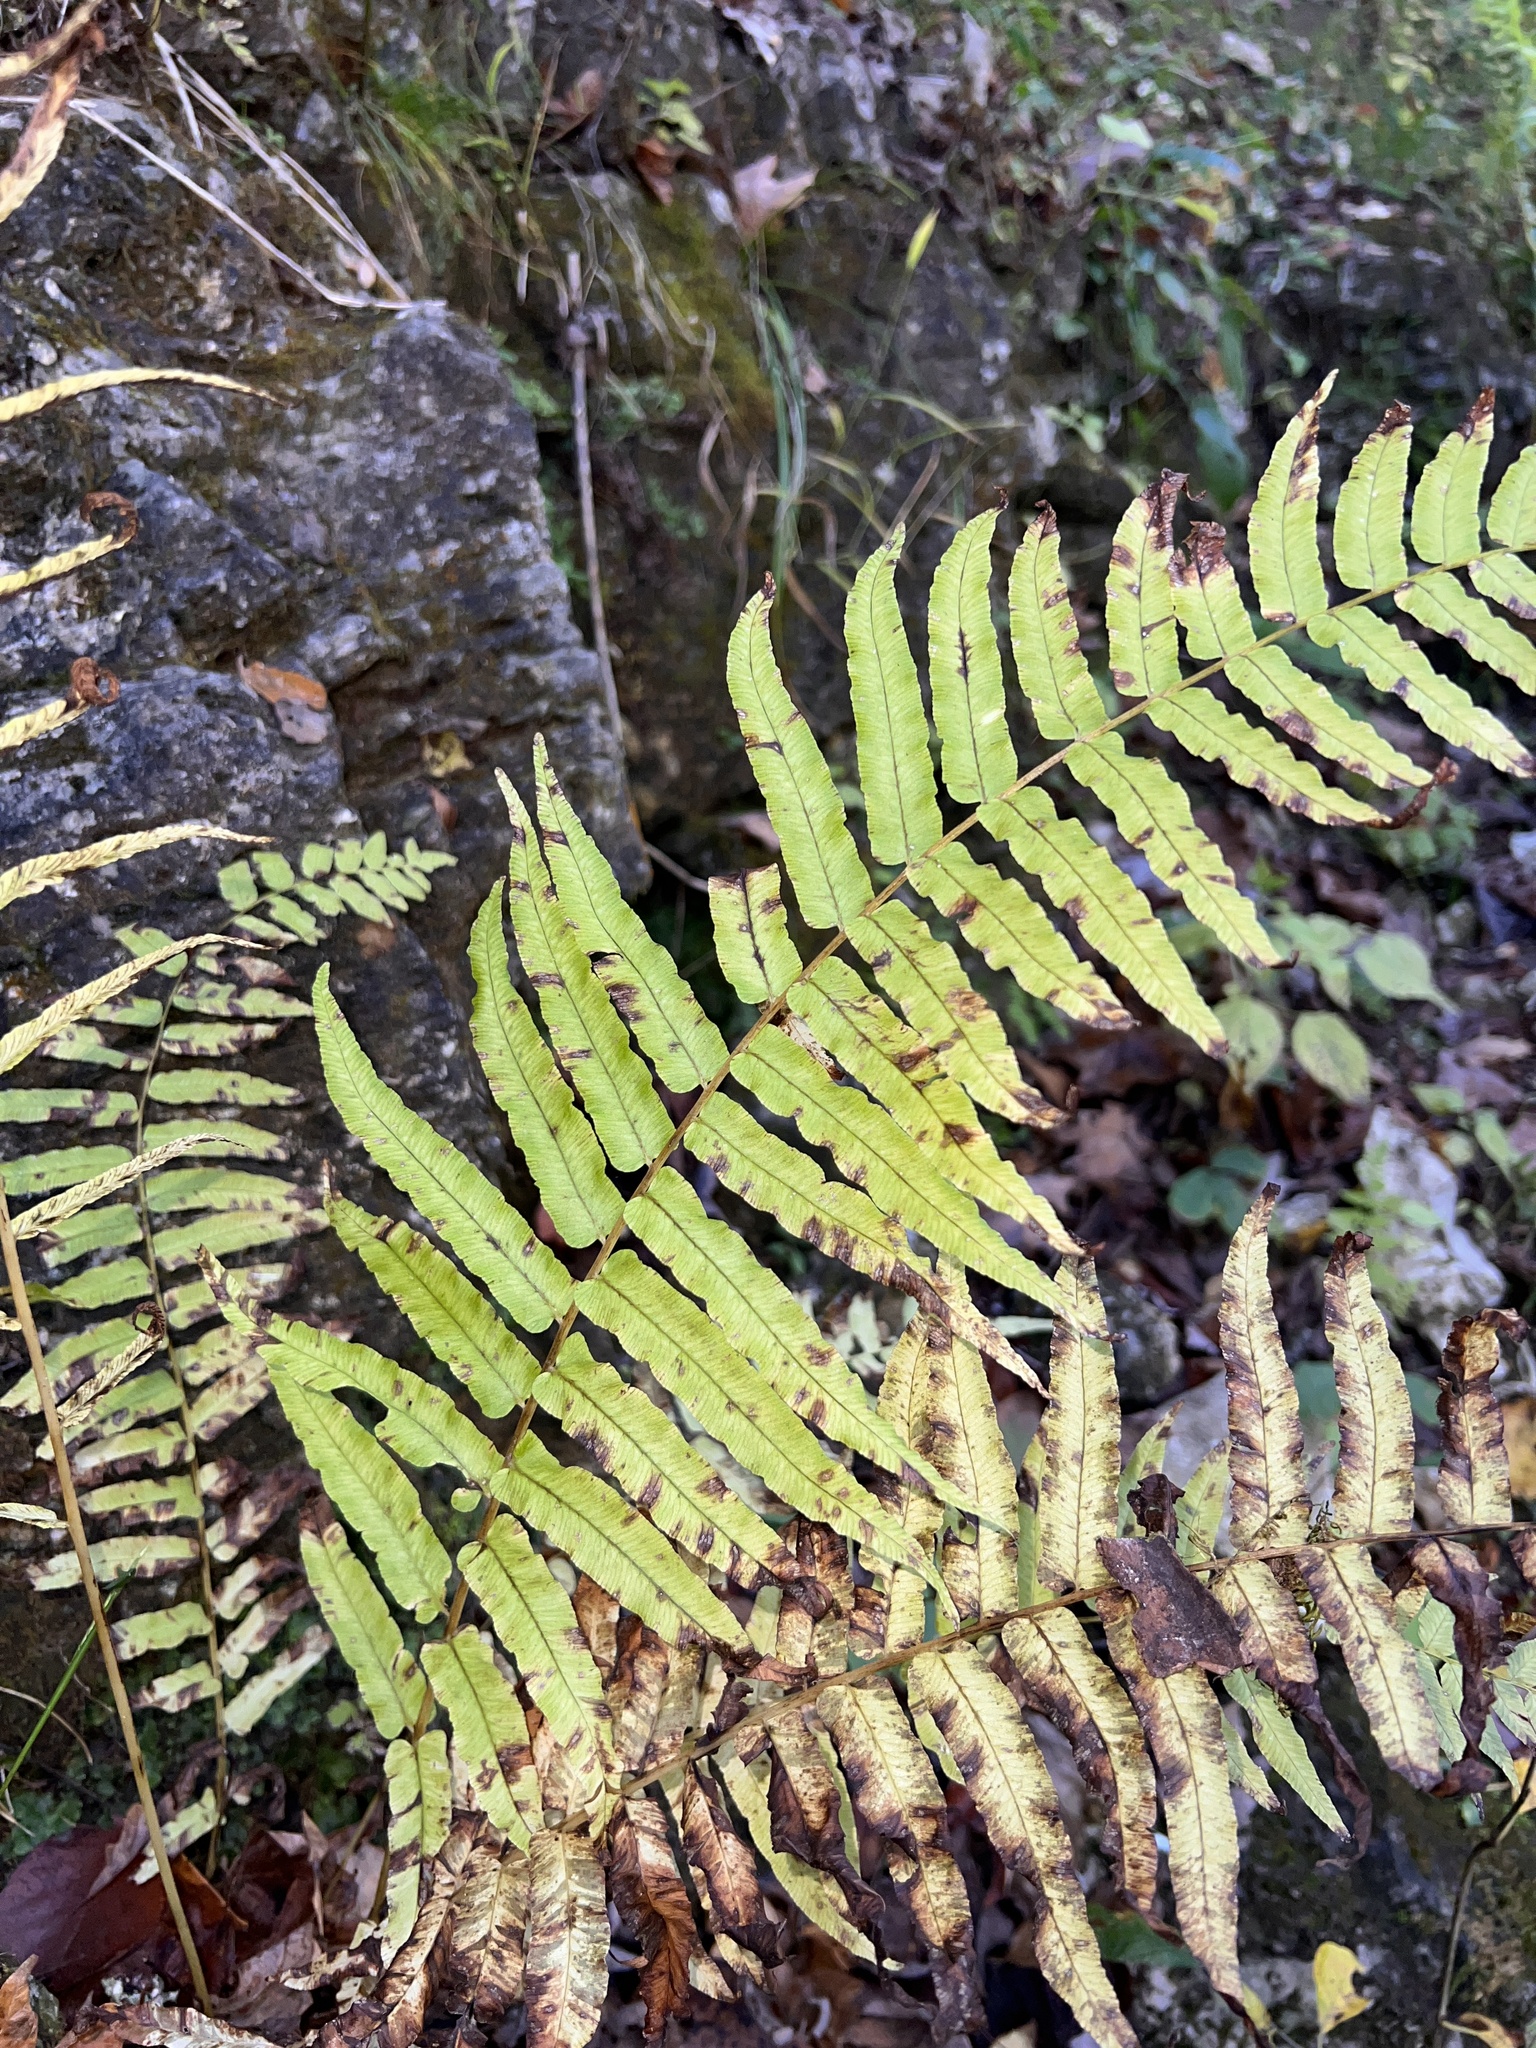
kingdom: Plantae
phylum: Tracheophyta
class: Polypodiopsida
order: Polypodiales
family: Diplaziopsidaceae
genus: Homalosorus
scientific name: Homalosorus pycnocarpos
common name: Glade fern
